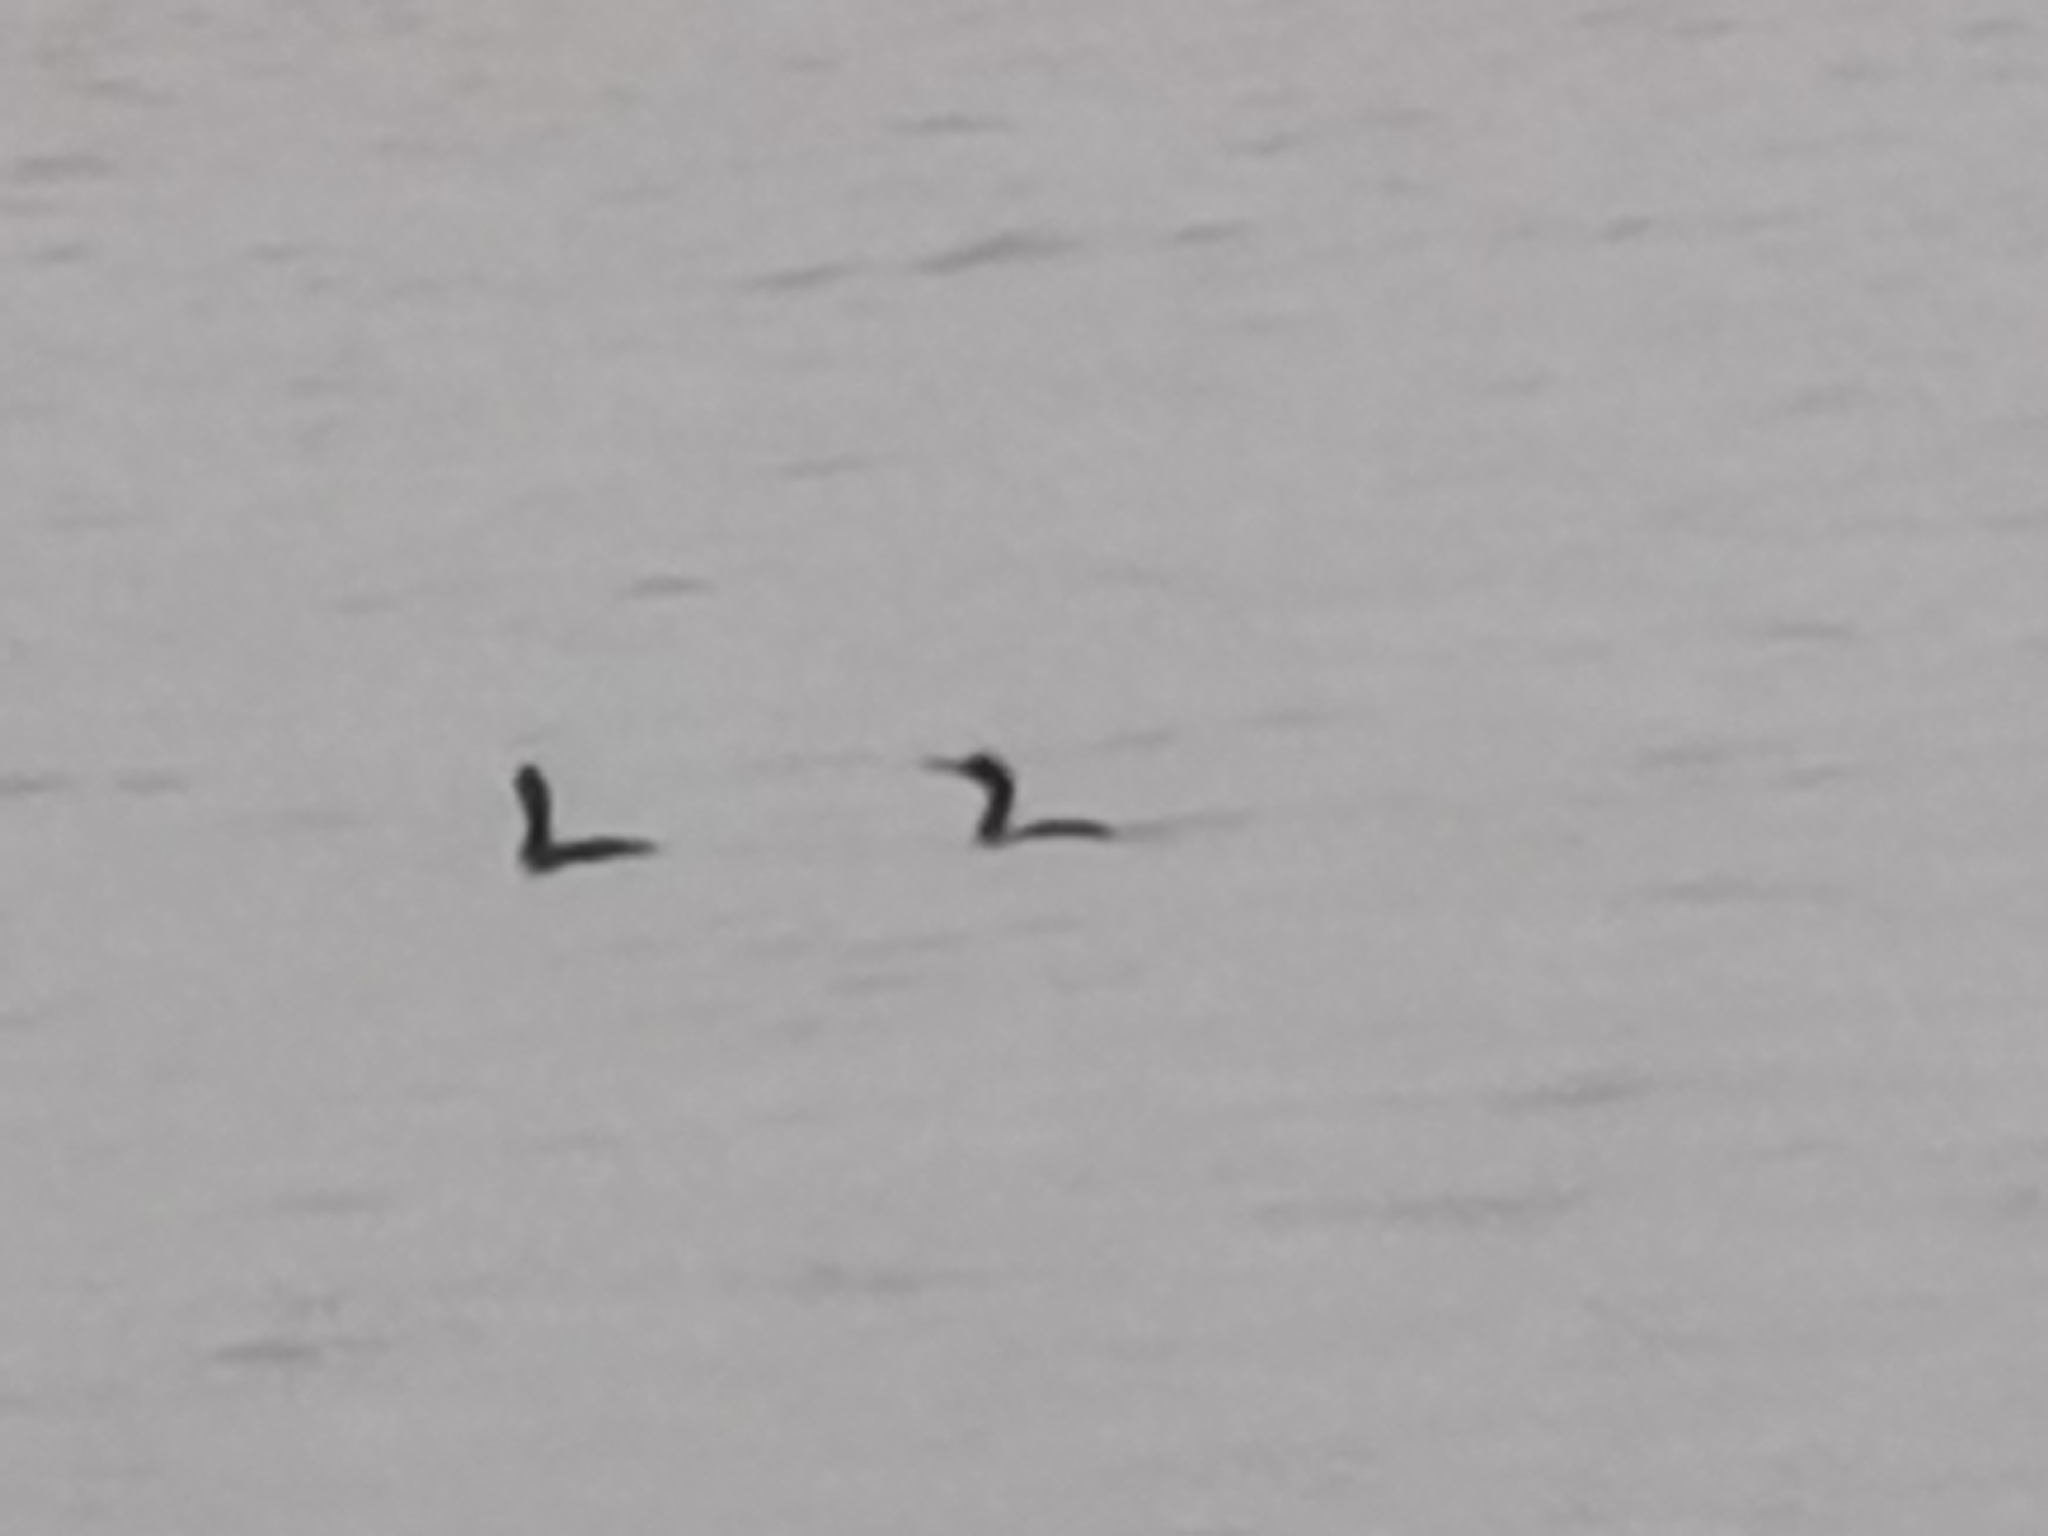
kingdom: Animalia
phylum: Chordata
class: Aves
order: Suliformes
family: Phalacrocoracidae
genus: Phalacrocorax
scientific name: Phalacrocorax aristotelis
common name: European shag
